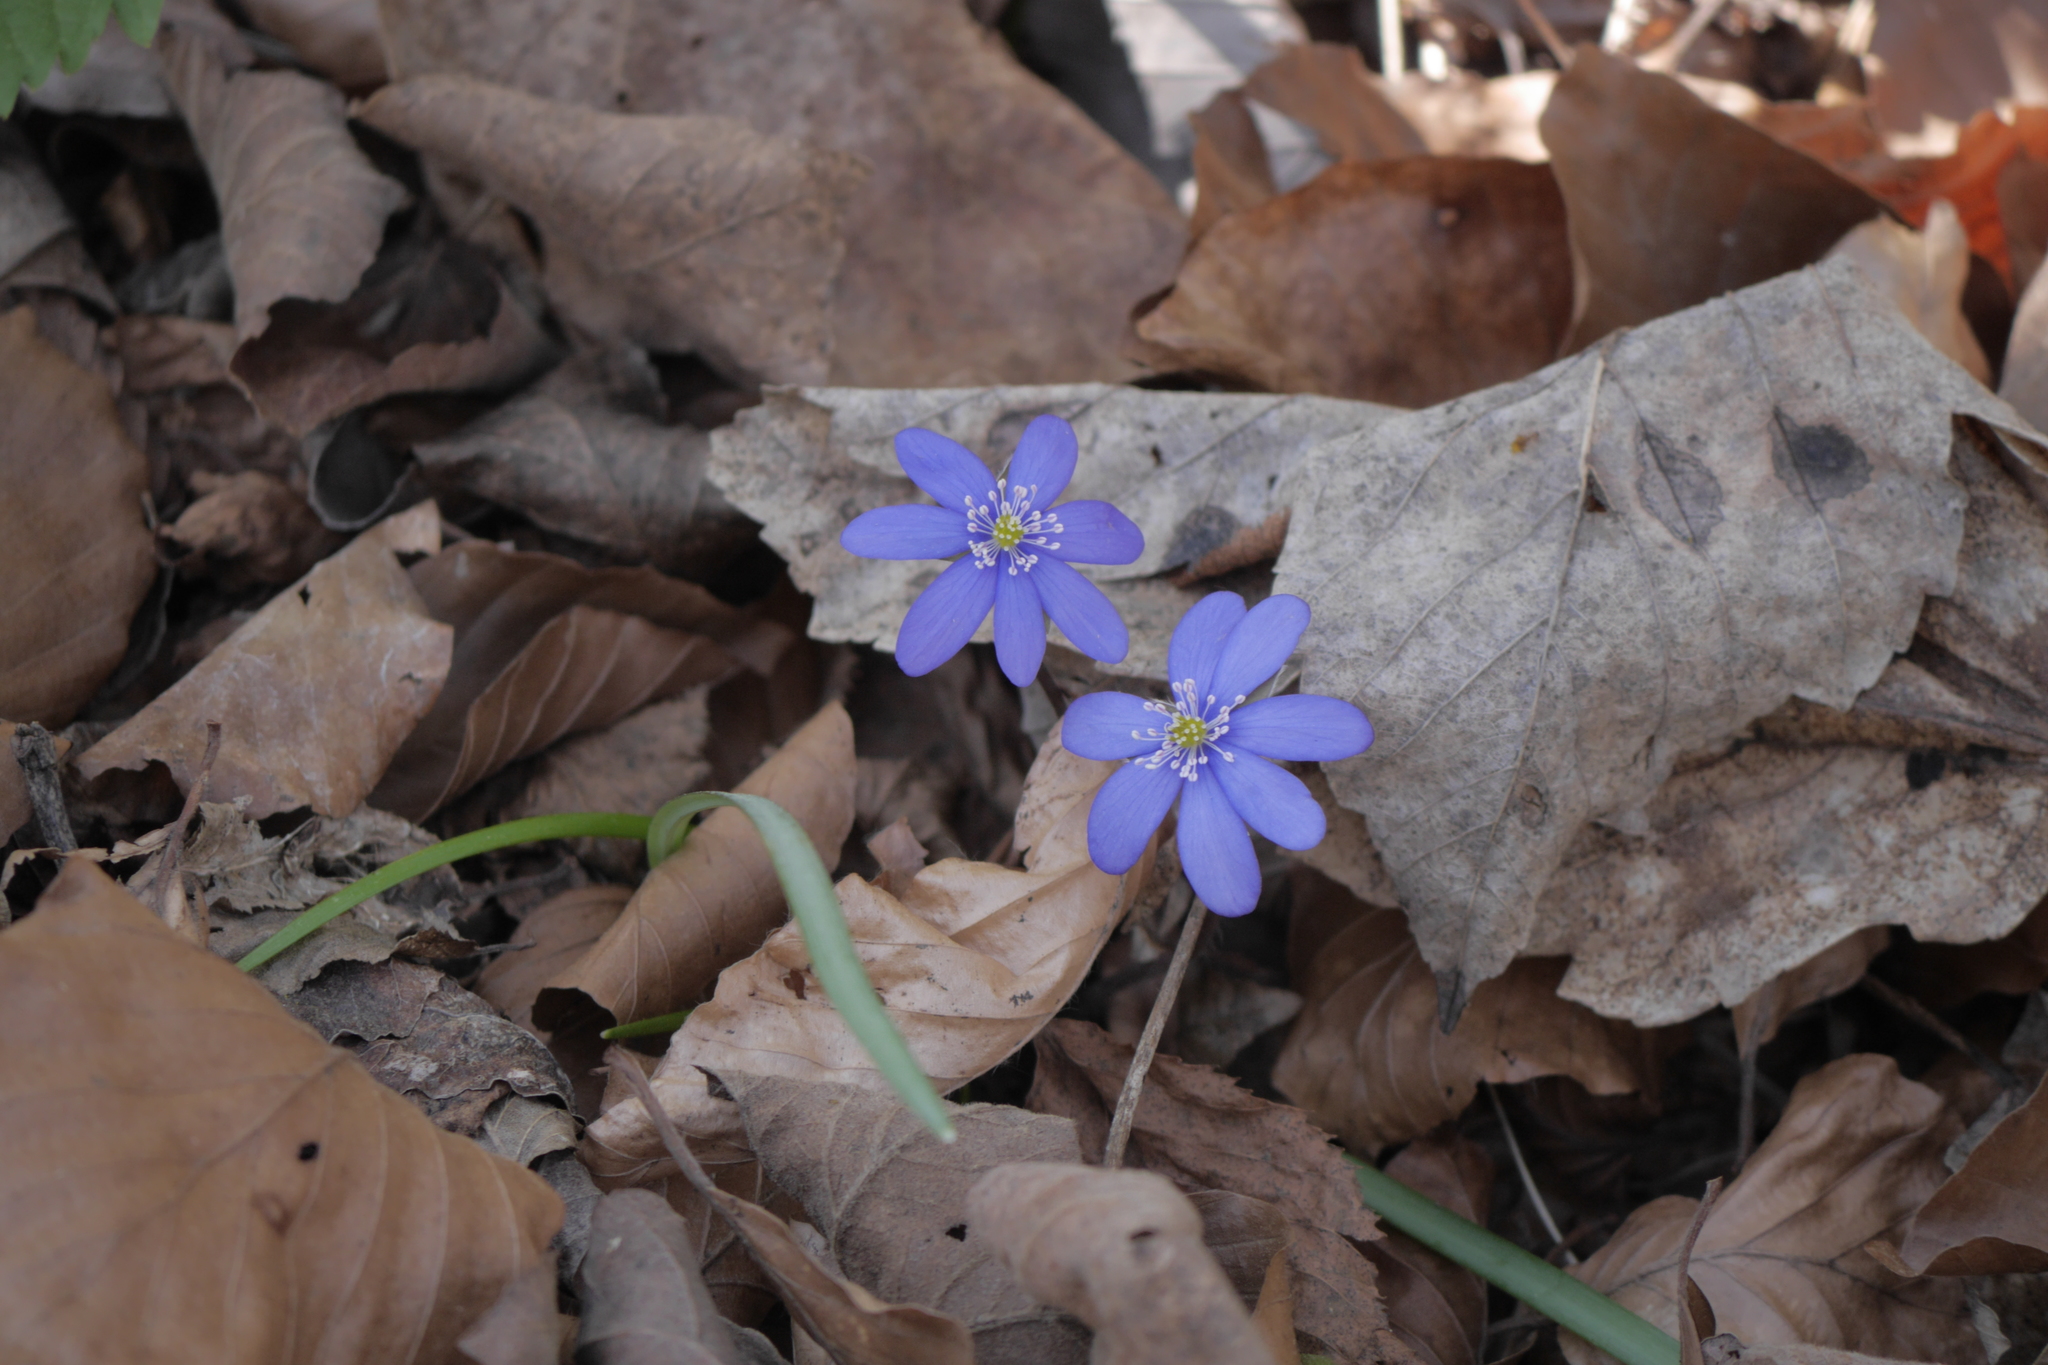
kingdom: Plantae
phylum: Tracheophyta
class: Magnoliopsida
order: Ranunculales
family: Ranunculaceae
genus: Hepatica
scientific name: Hepatica nobilis
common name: Liverleaf
